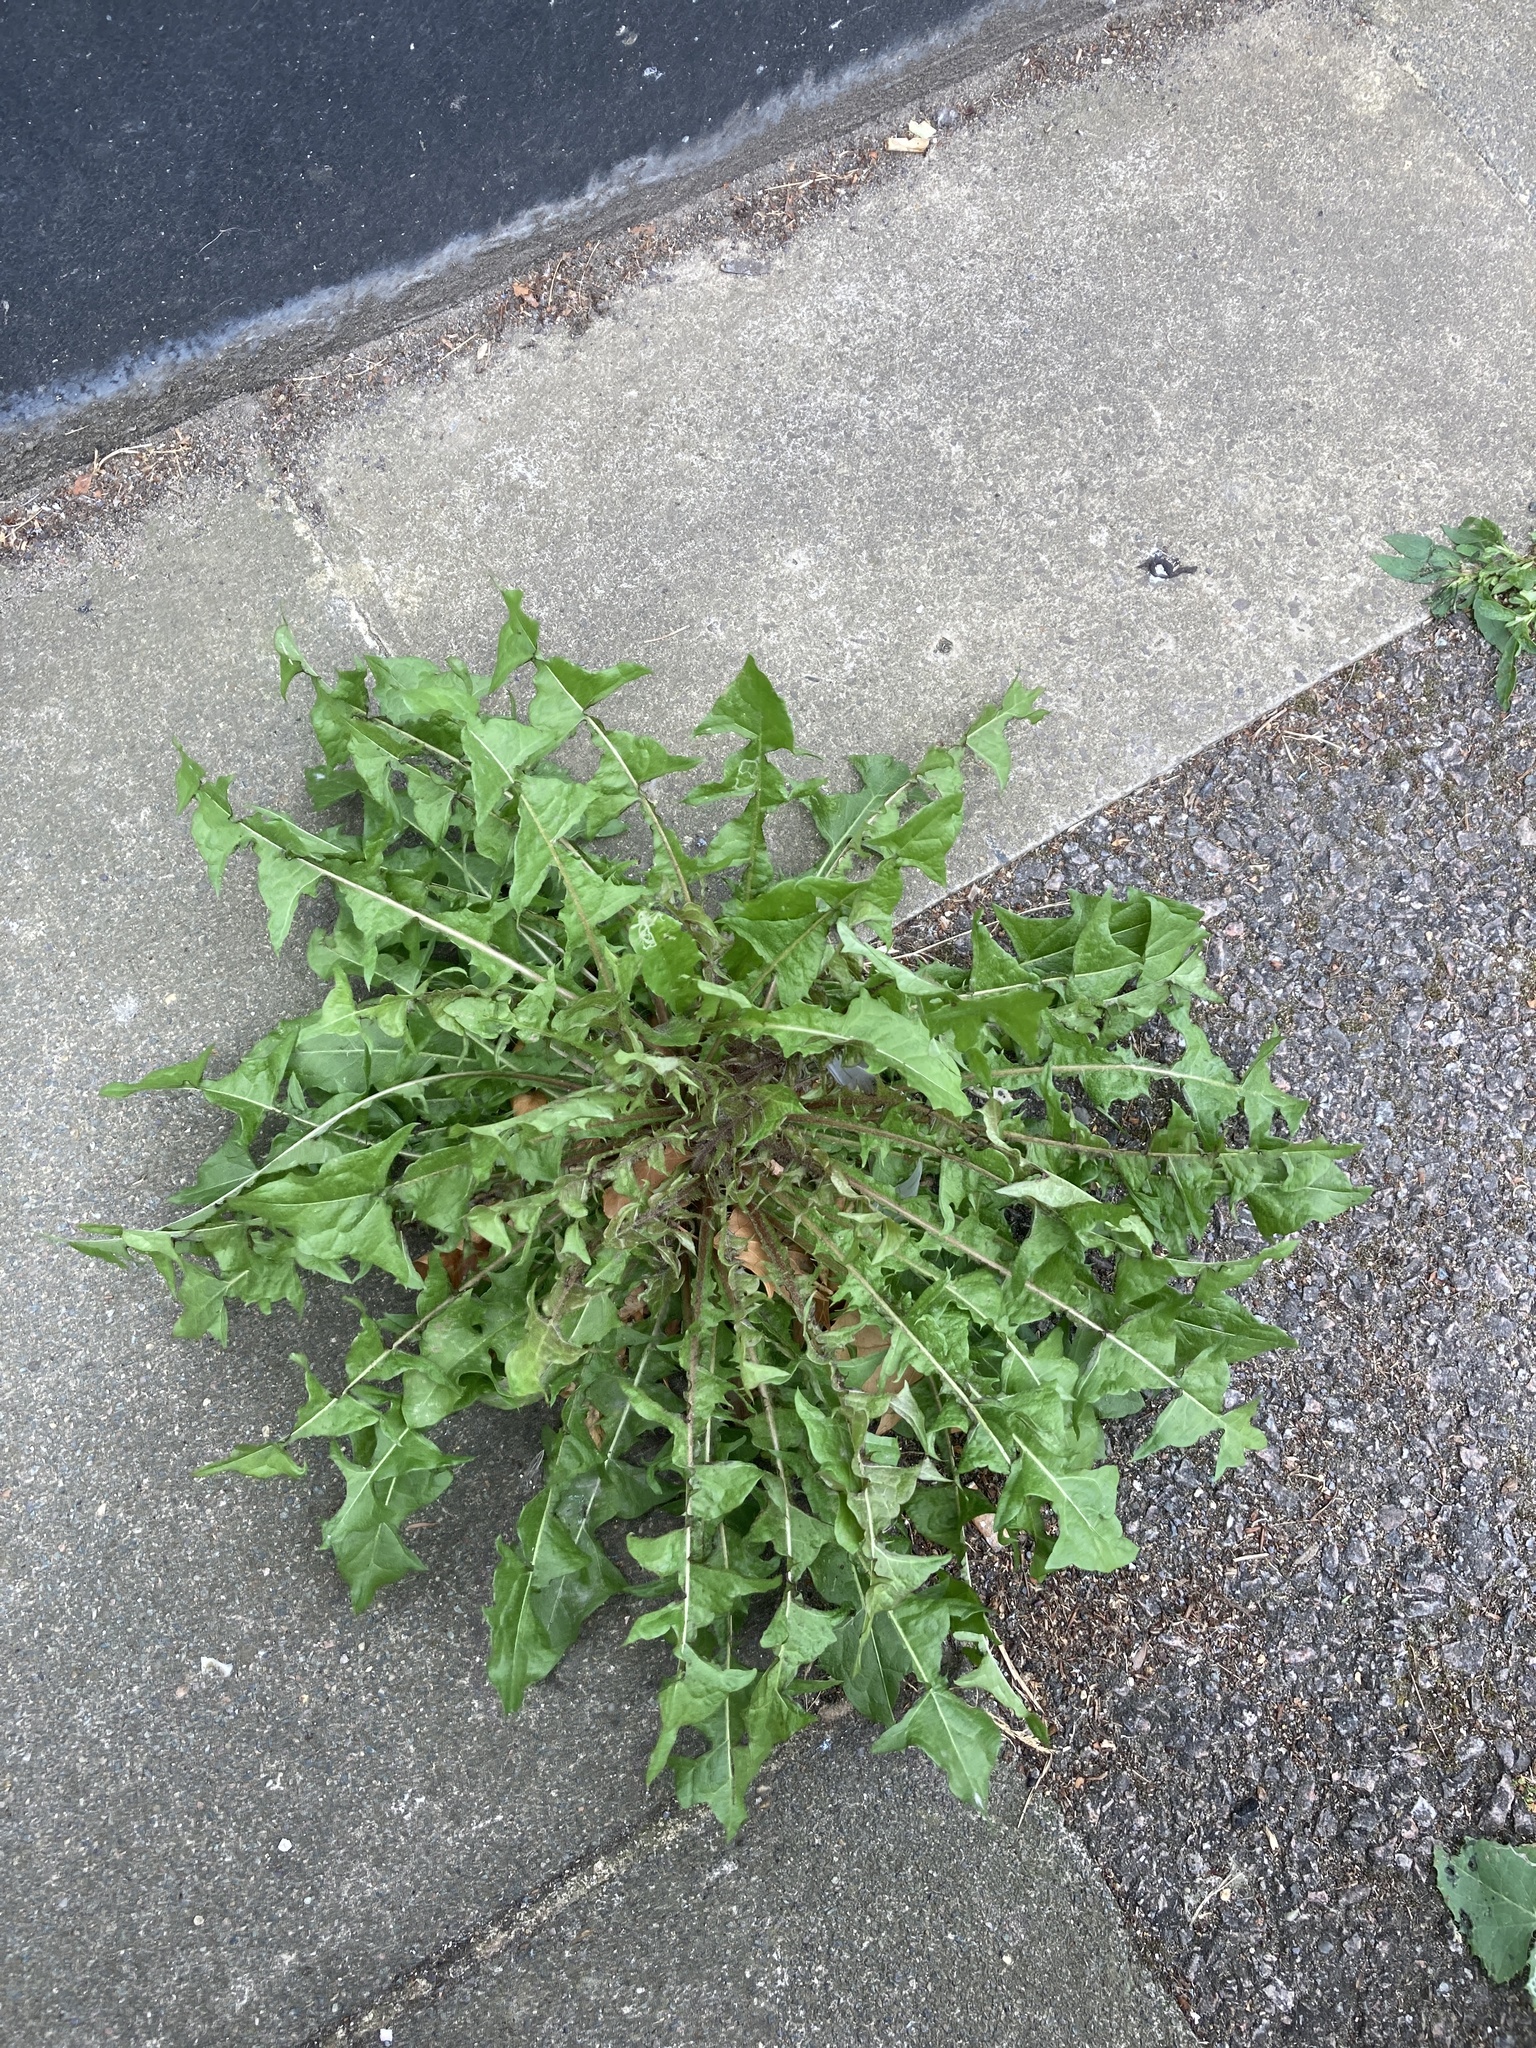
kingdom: Plantae
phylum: Tracheophyta
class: Magnoliopsida
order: Asterales
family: Asteraceae
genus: Taraxacum
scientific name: Taraxacum officinale
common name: Common dandelion
